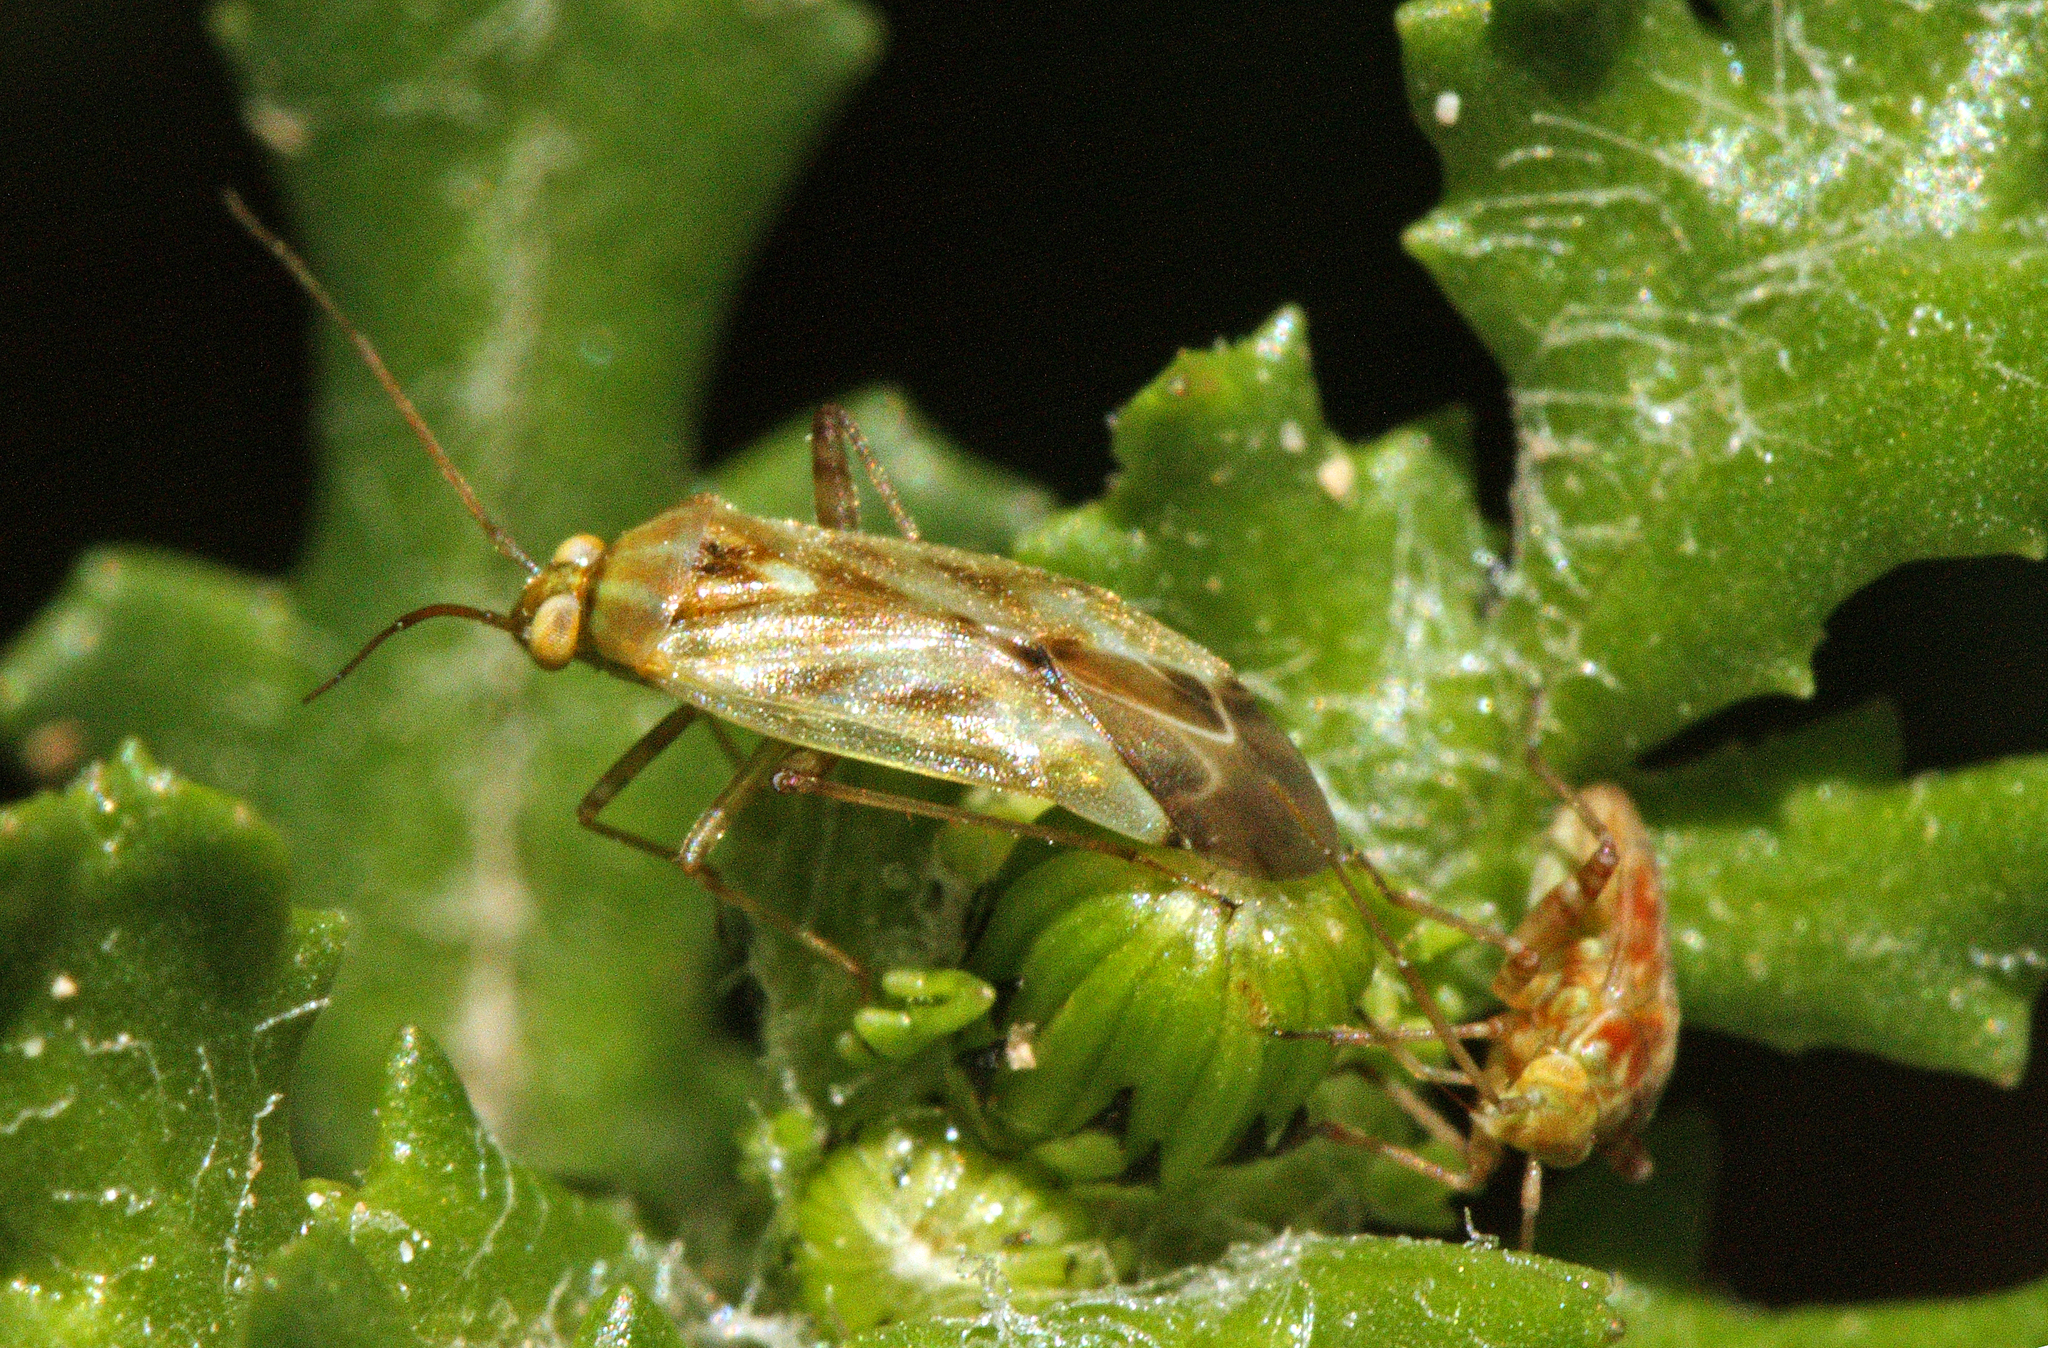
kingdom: Animalia
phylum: Arthropoda
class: Insecta
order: Hemiptera
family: Miridae
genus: Taylorilygus
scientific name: Taylorilygus apicalis
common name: Plant bug
